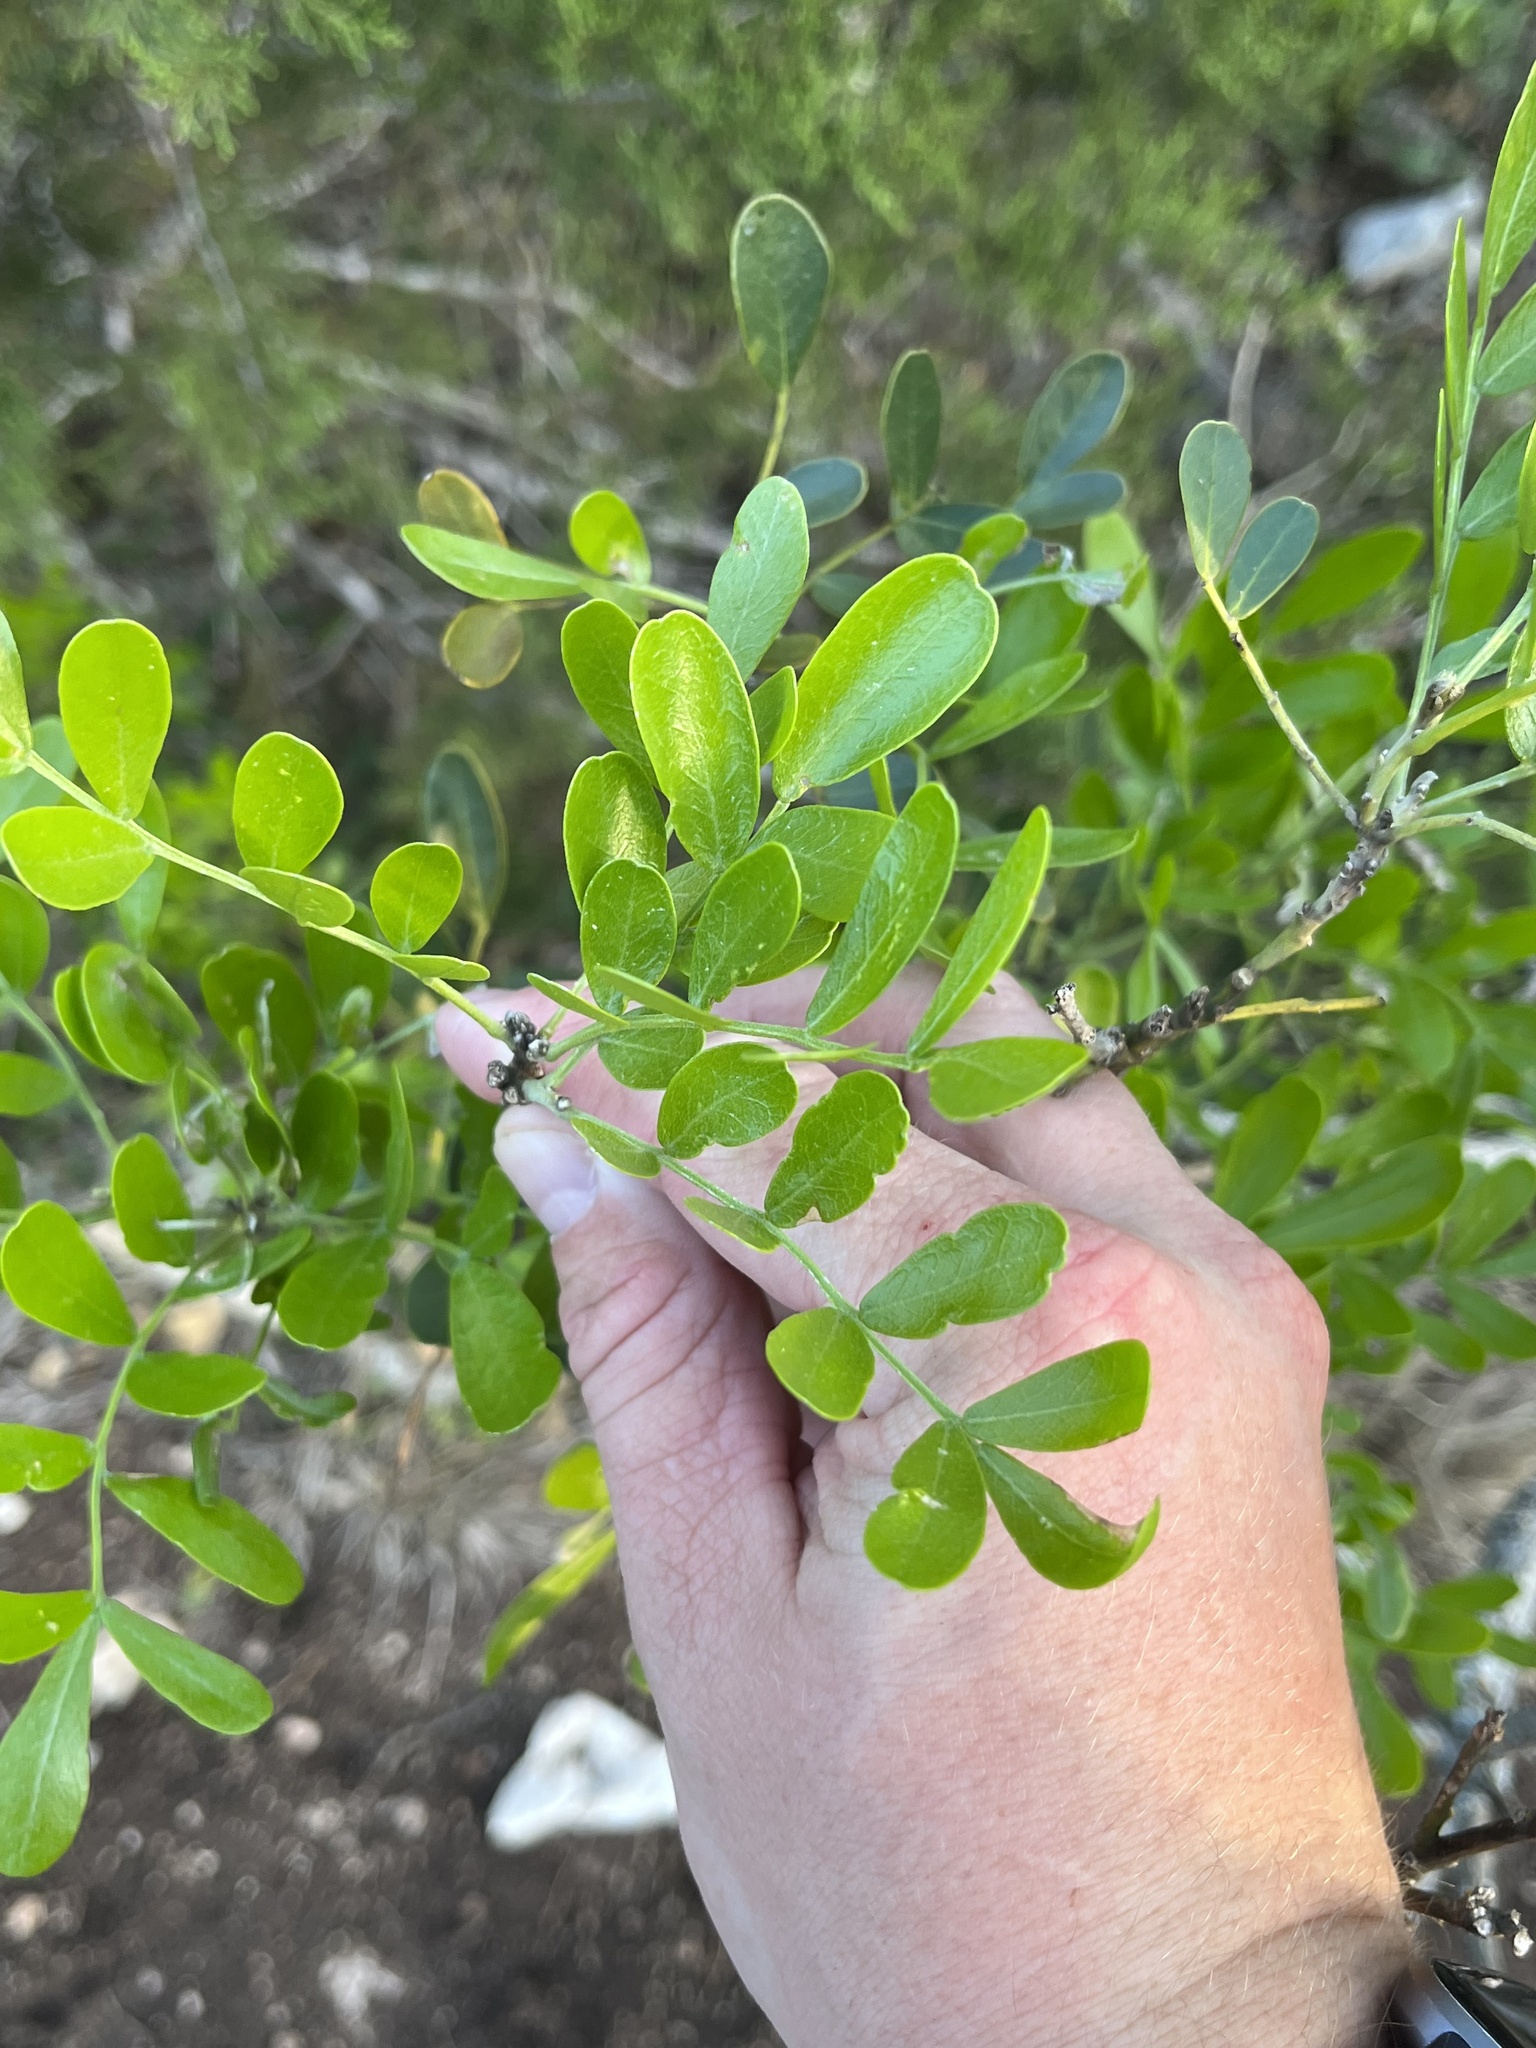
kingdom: Plantae
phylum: Tracheophyta
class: Magnoliopsida
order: Fabales
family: Fabaceae
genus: Dermatophyllum
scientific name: Dermatophyllum secundiflorum
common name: Texas-mountain-laurel
